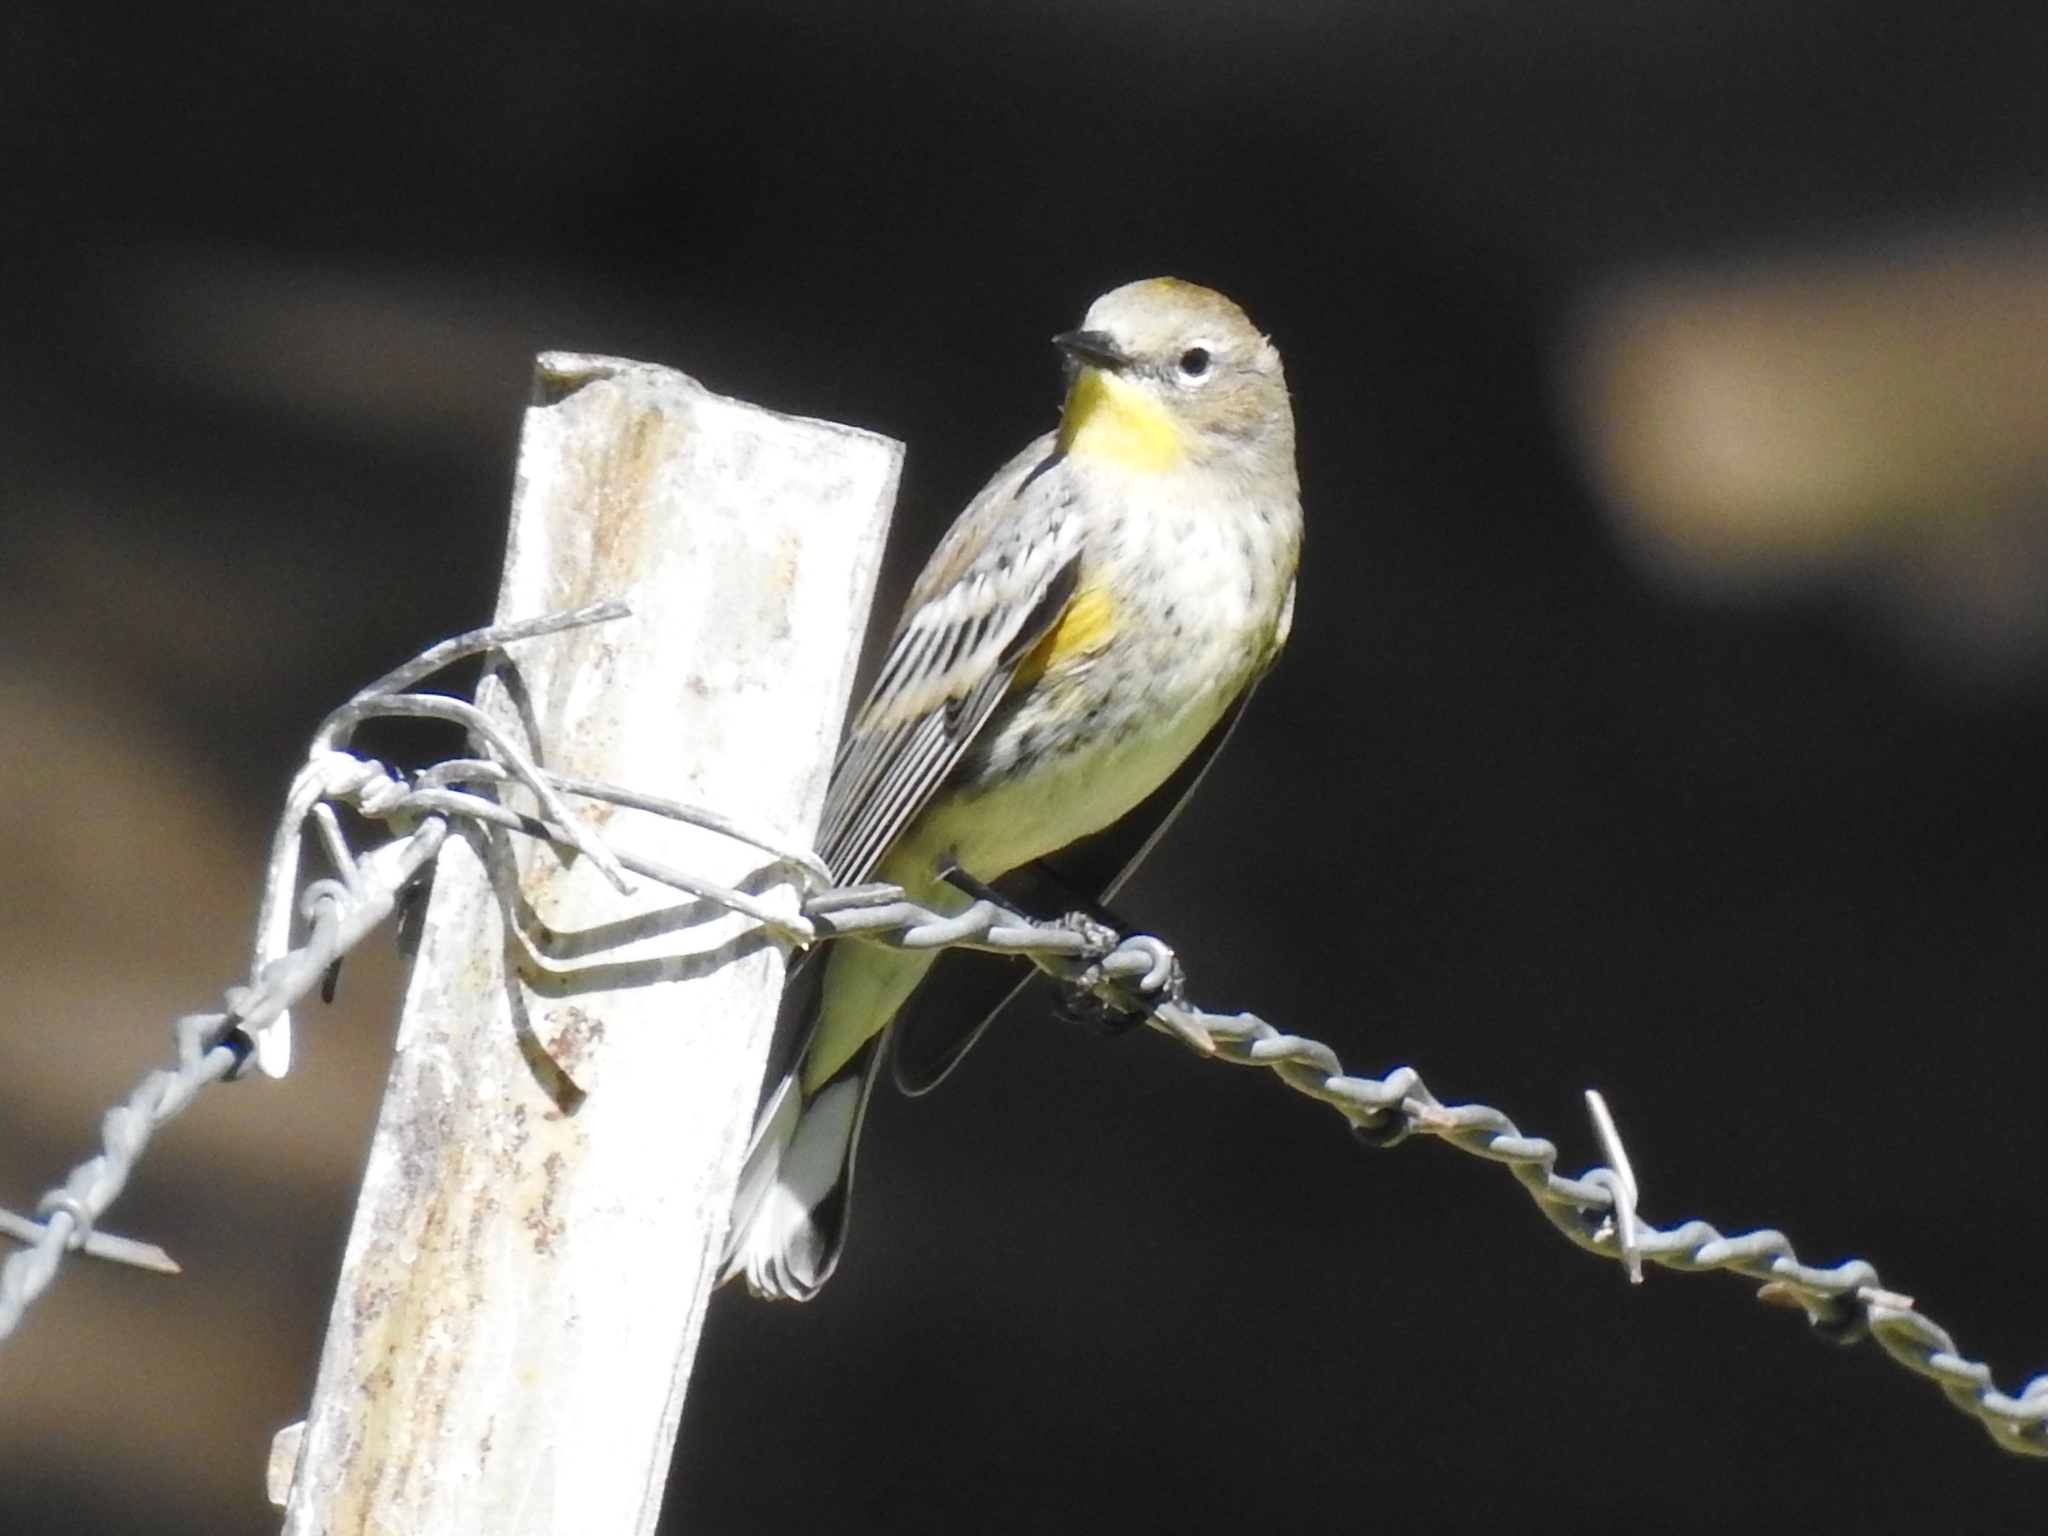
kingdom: Animalia
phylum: Chordata
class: Aves
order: Passeriformes
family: Parulidae
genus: Setophaga
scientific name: Setophaga coronata
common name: Myrtle warbler
